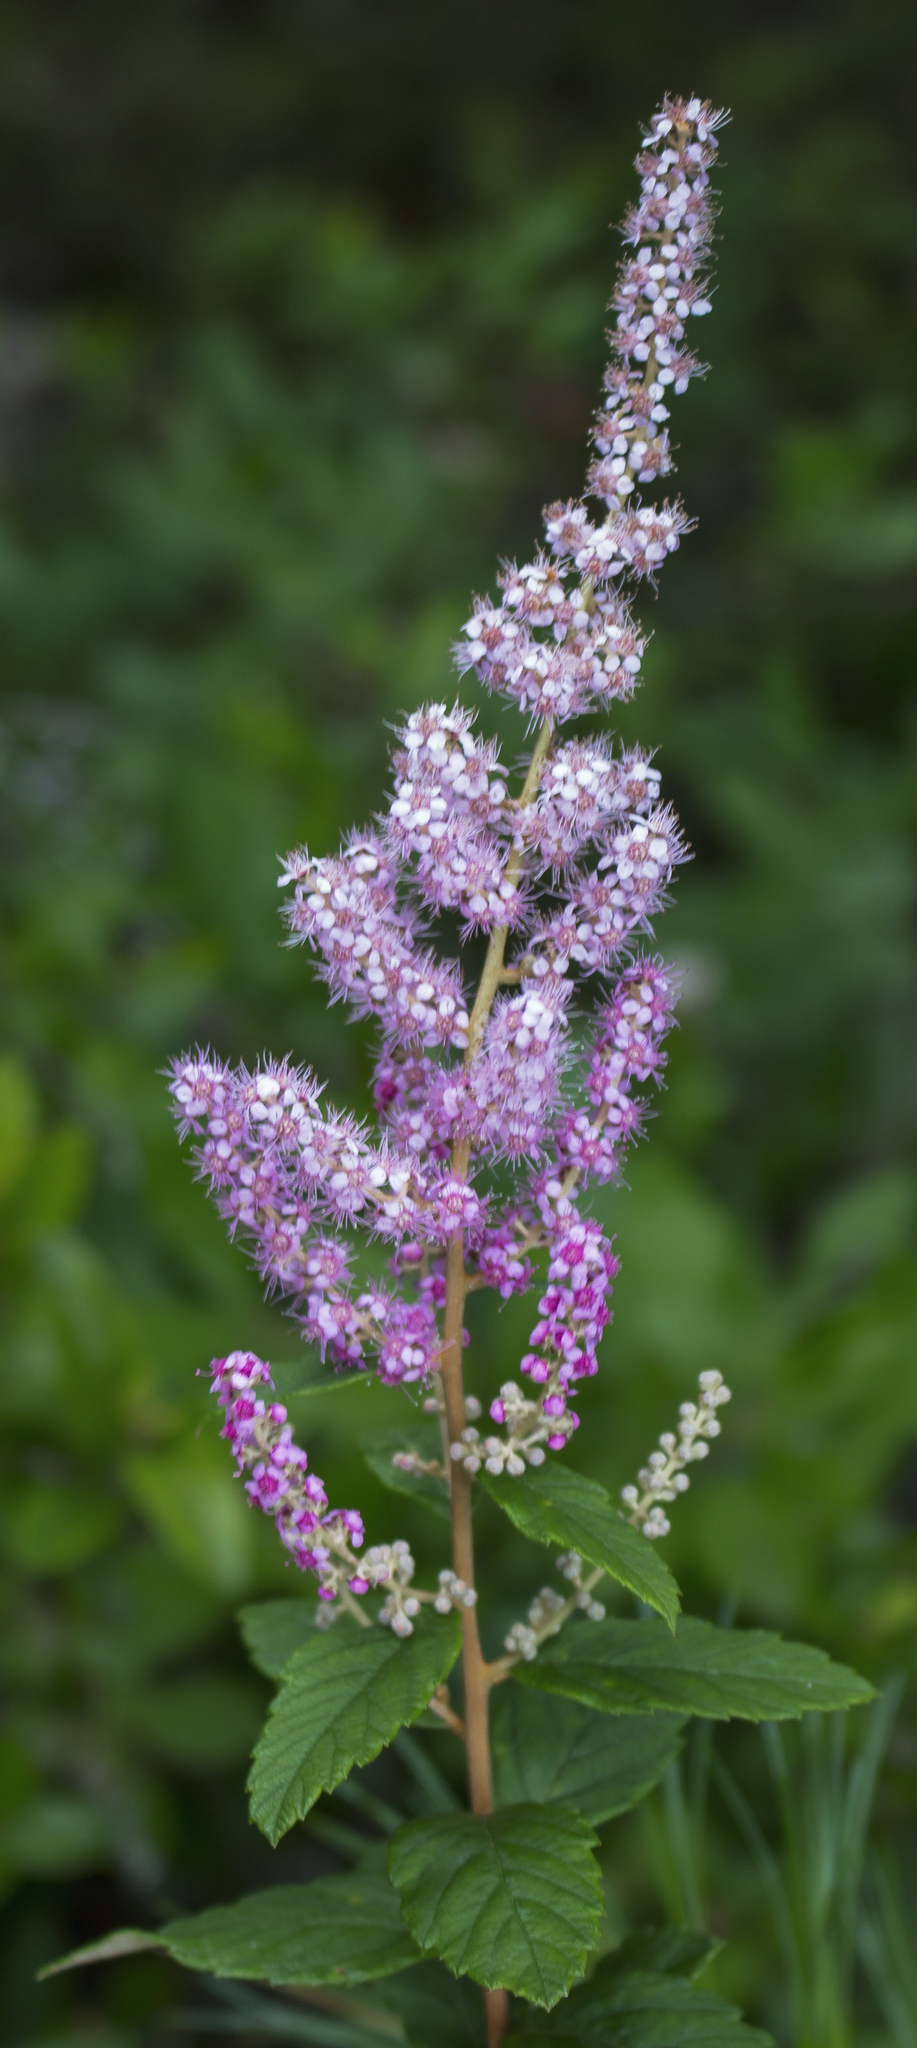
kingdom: Plantae
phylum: Tracheophyta
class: Magnoliopsida
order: Rosales
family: Rosaceae
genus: Spiraea
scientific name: Spiraea tomentosa
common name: Hardhack
